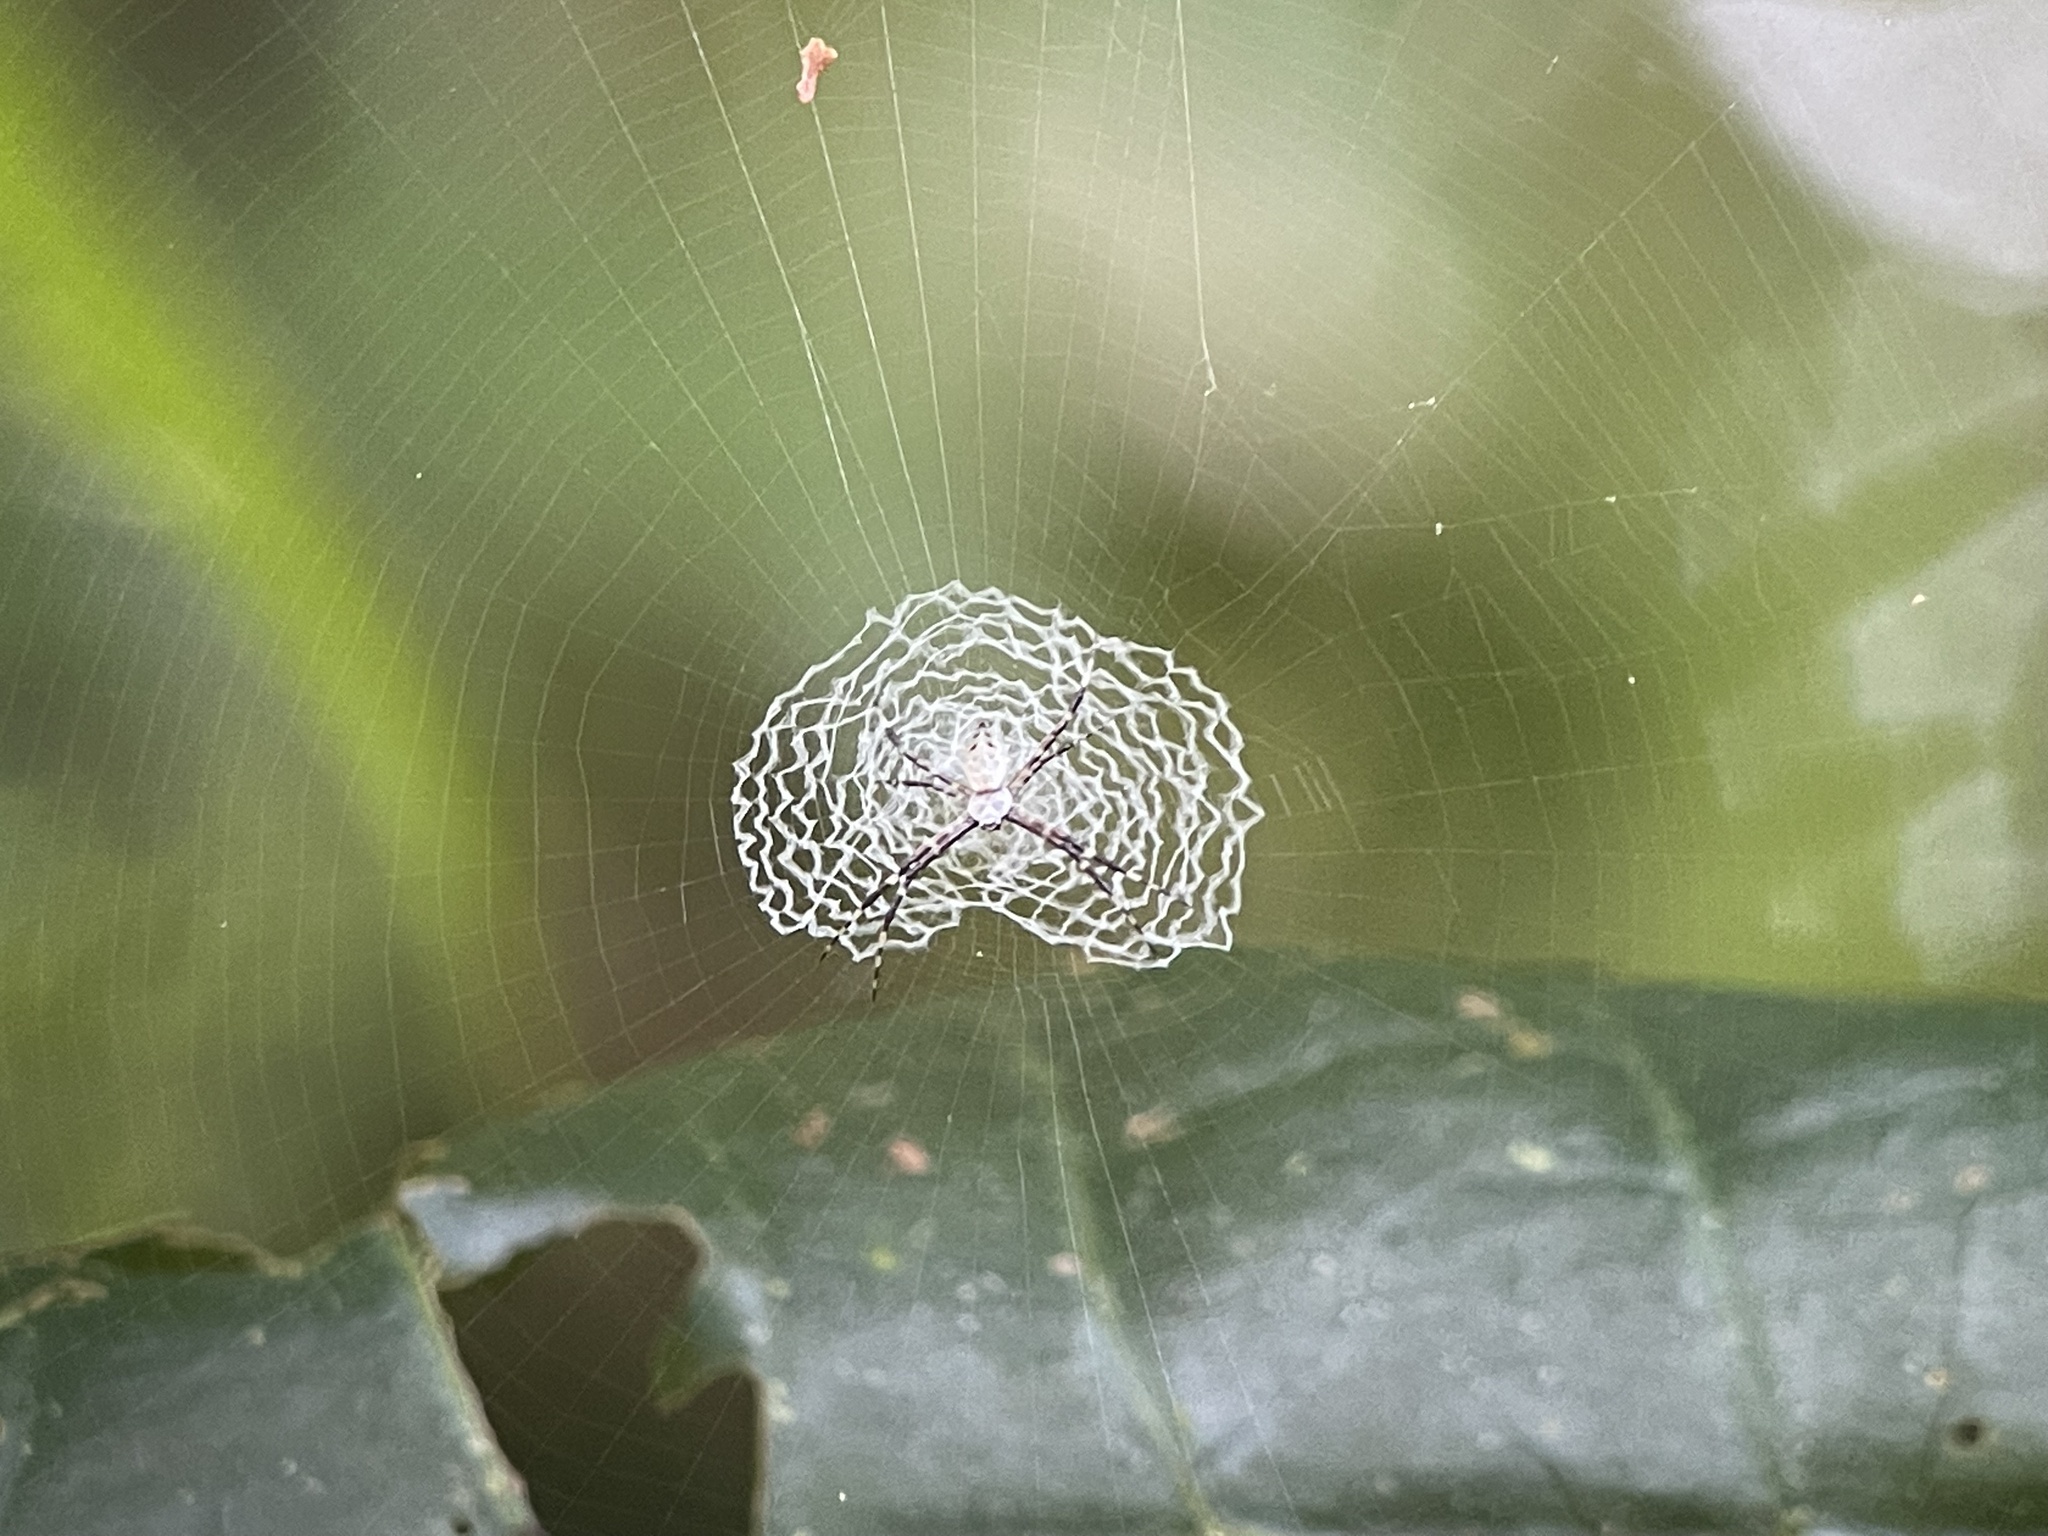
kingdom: Animalia
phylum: Arthropoda
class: Arachnida
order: Araneae
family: Araneidae
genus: Argiope
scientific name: Argiope submaronica
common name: Orb weavers
